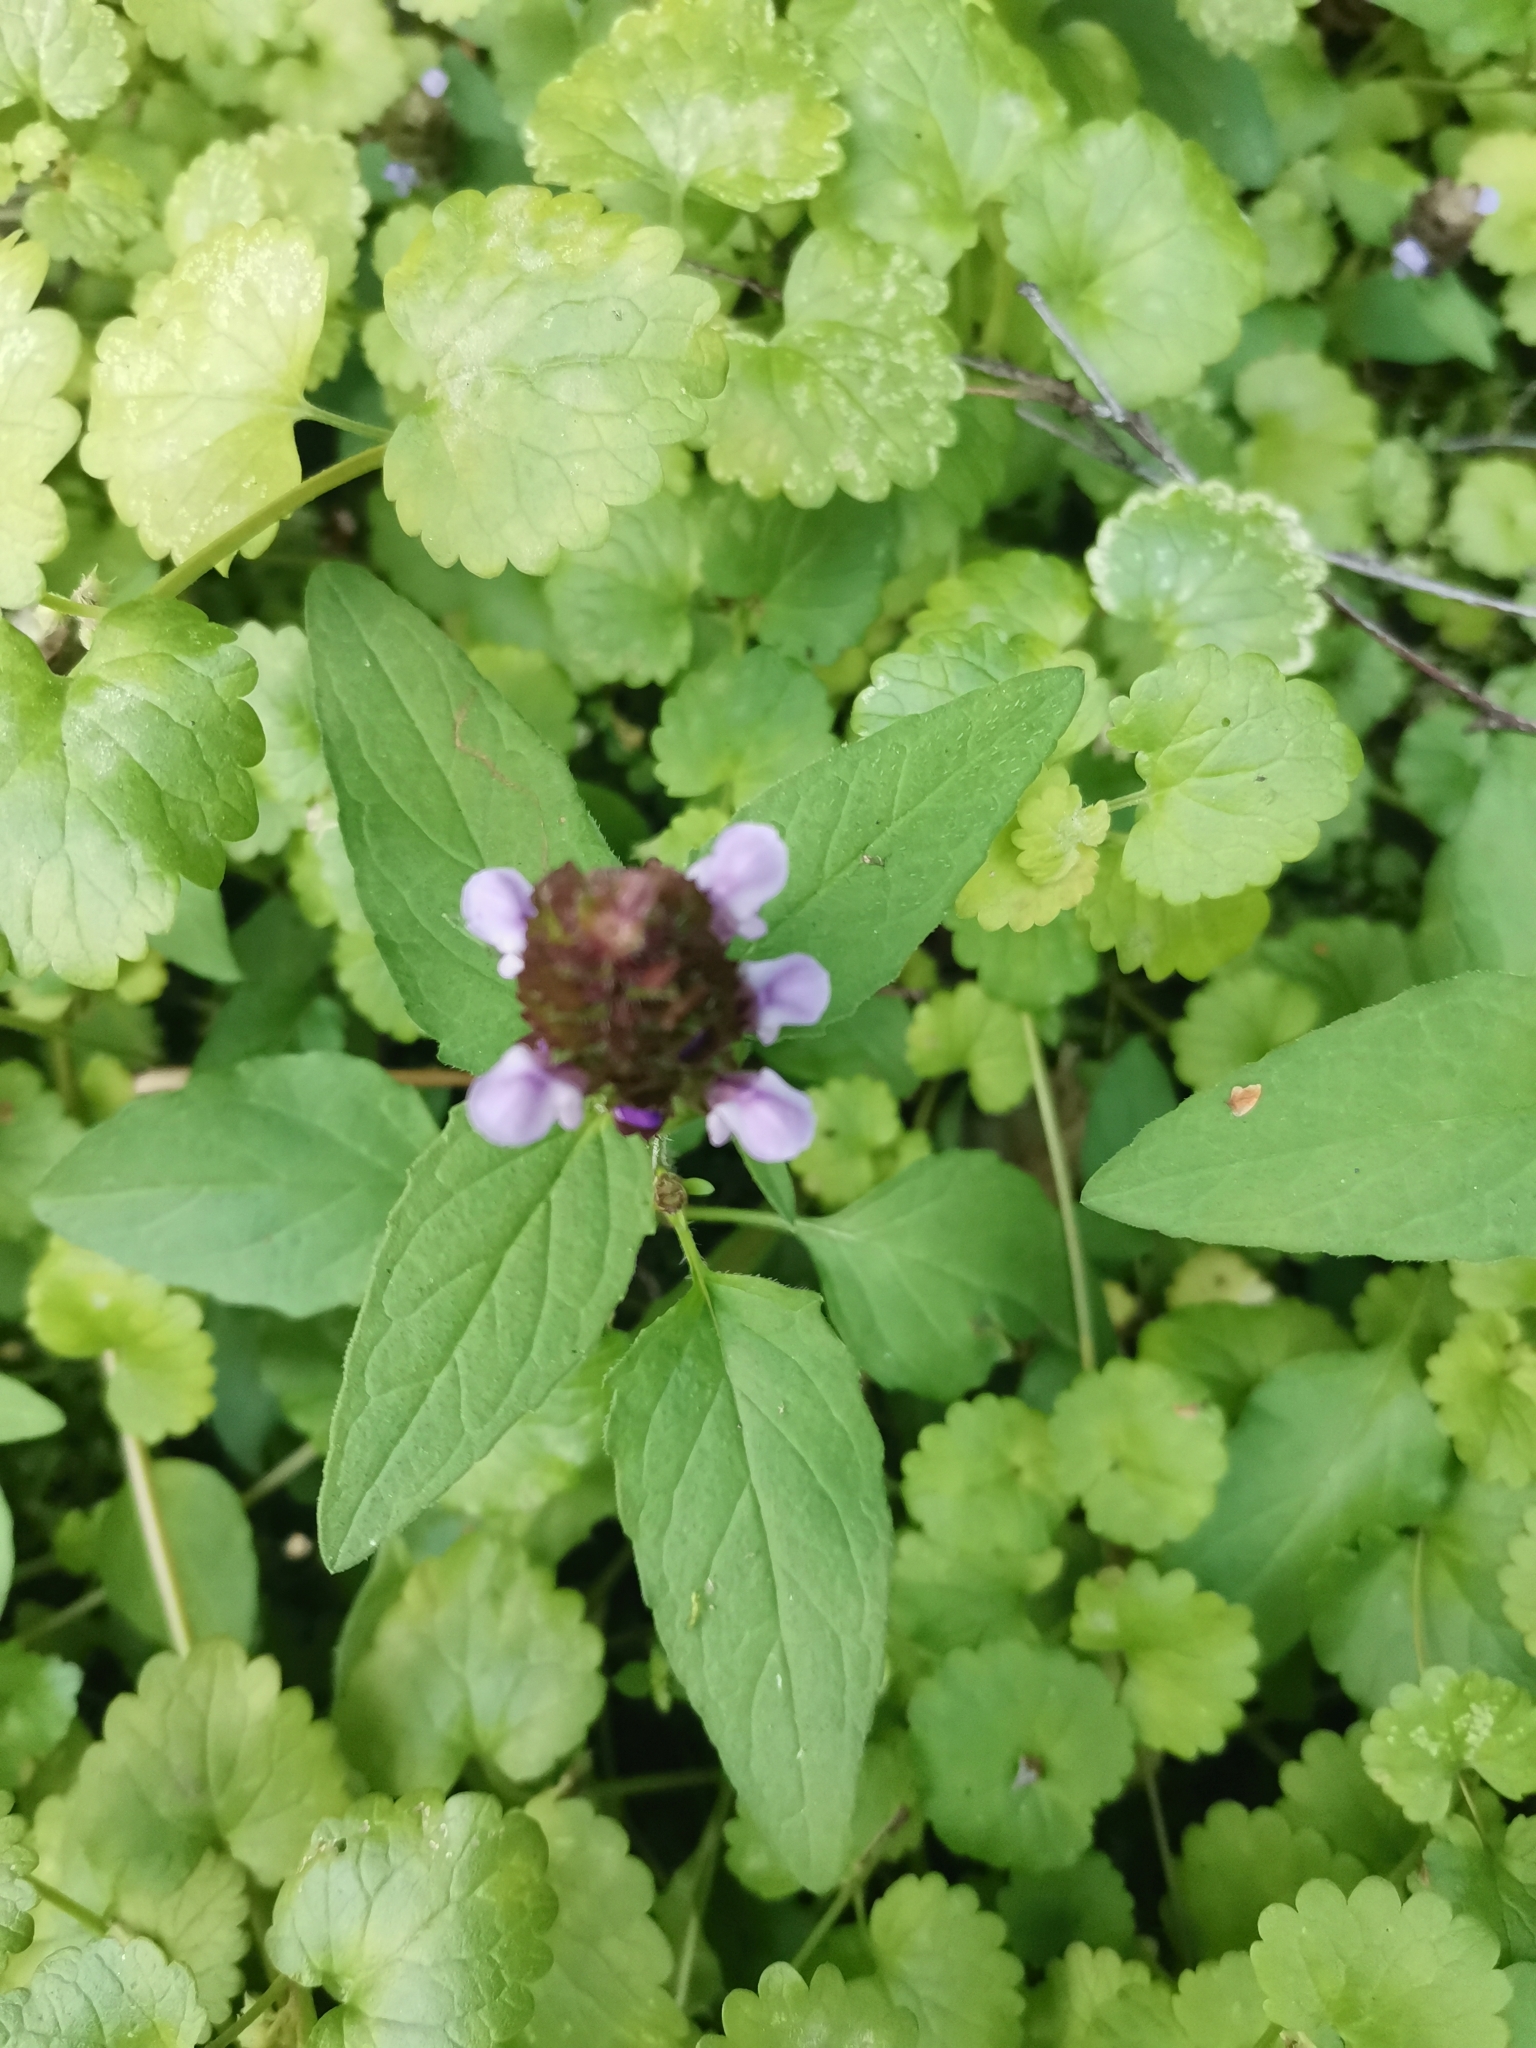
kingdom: Plantae
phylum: Tracheophyta
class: Magnoliopsida
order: Lamiales
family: Lamiaceae
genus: Prunella
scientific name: Prunella vulgaris
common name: Heal-all
